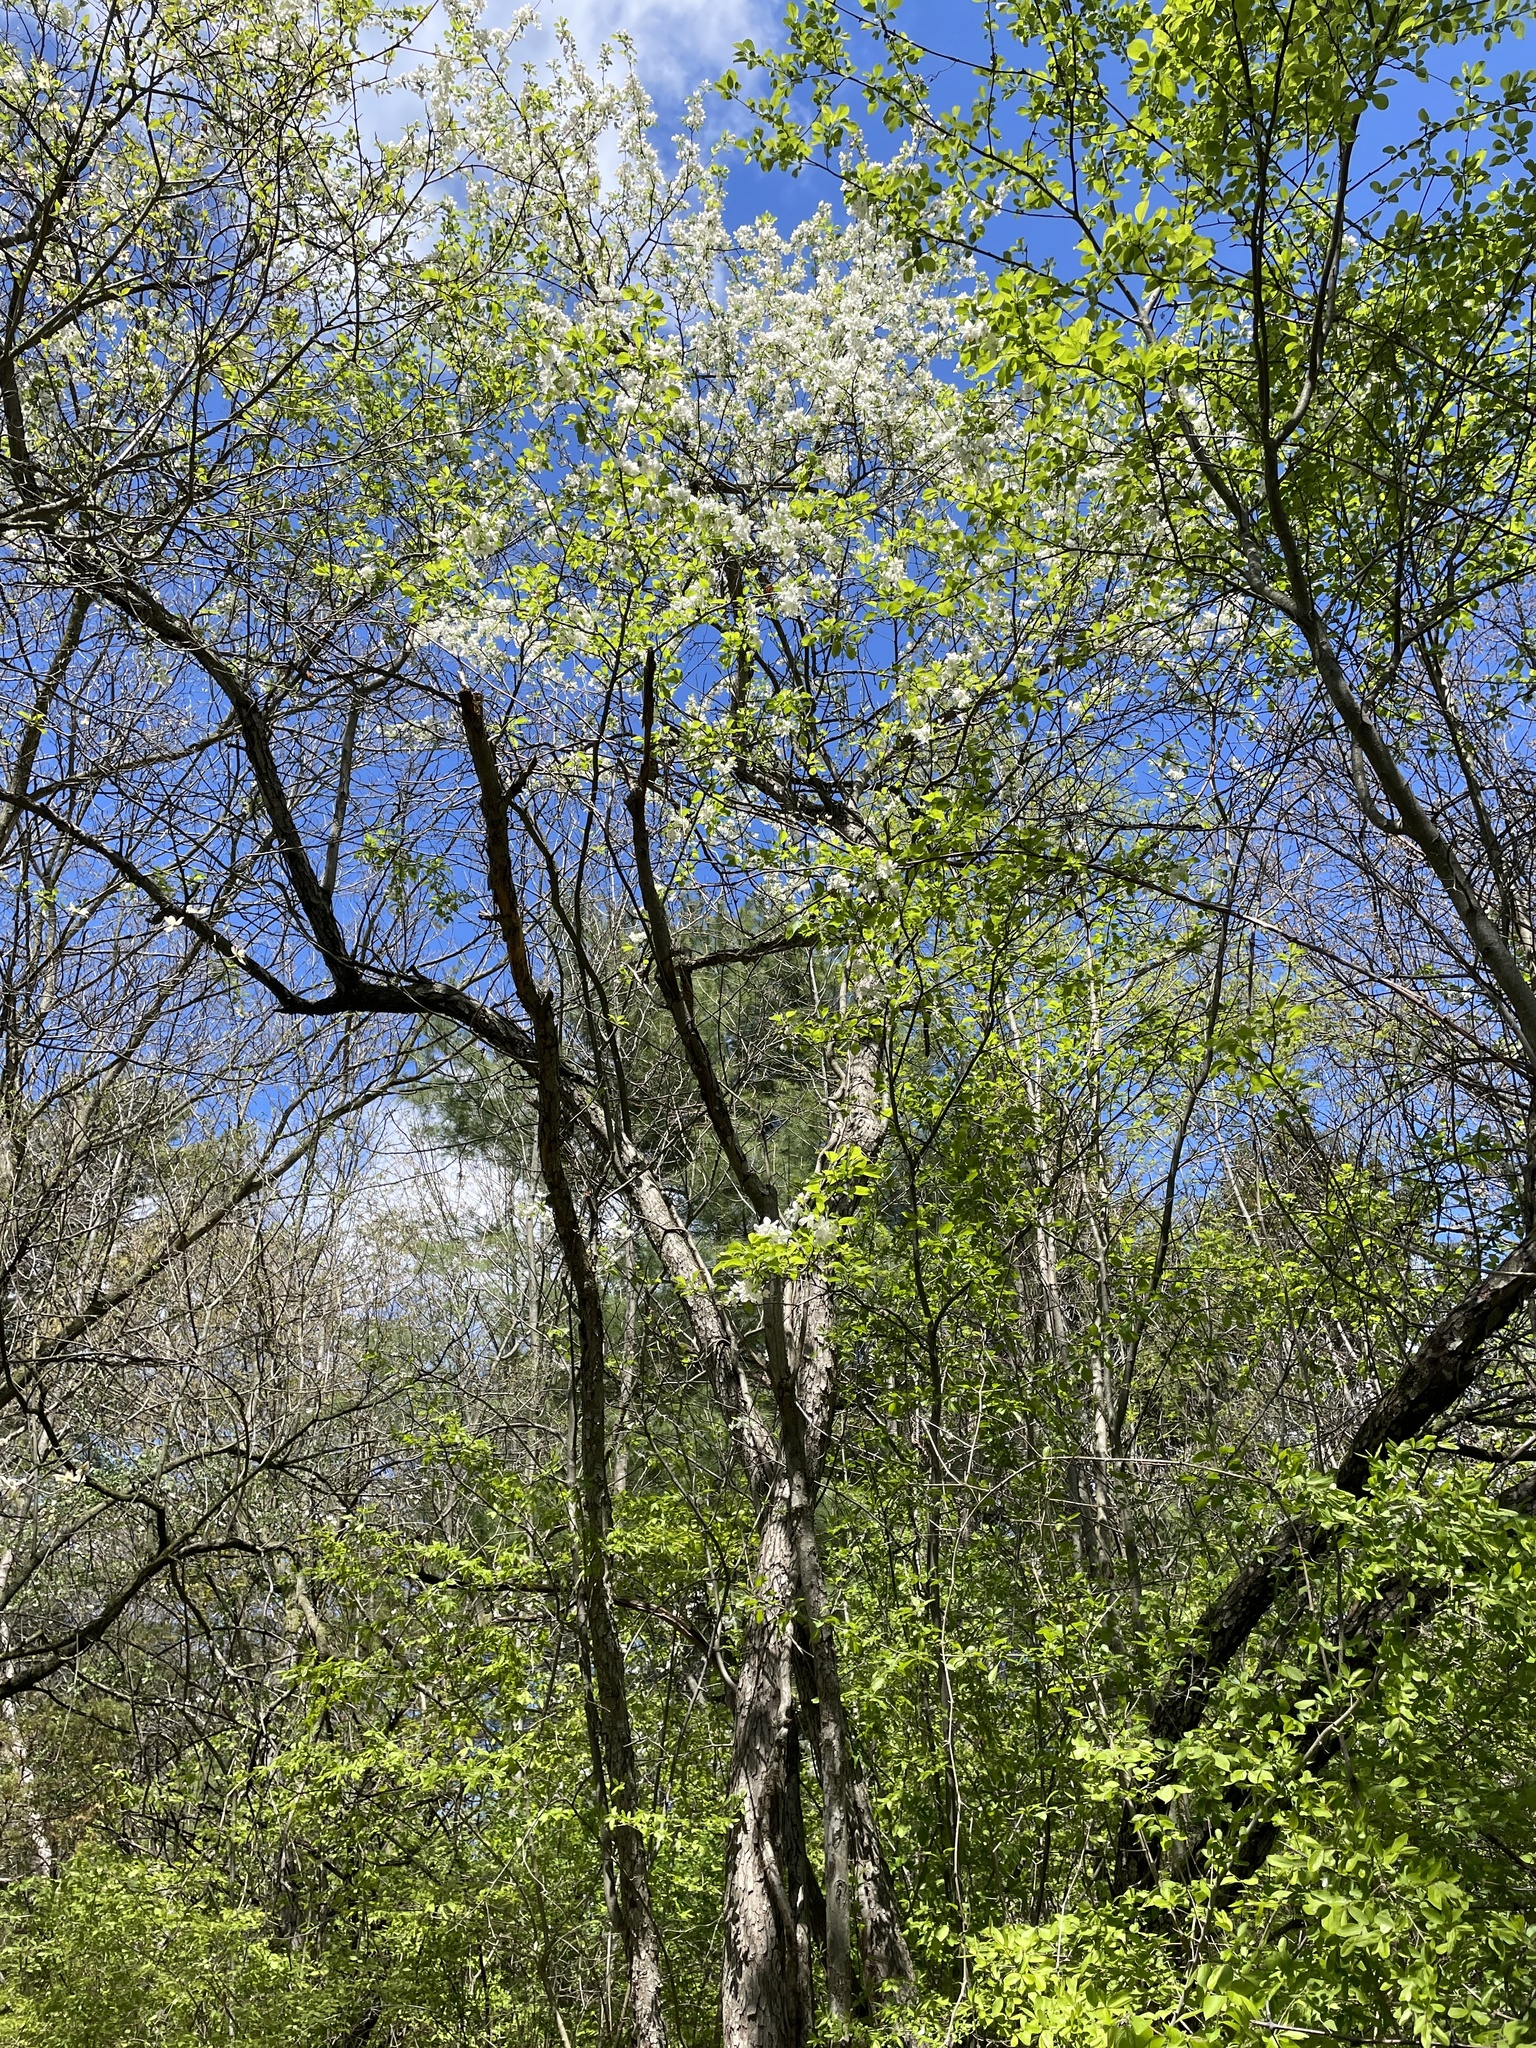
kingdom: Plantae
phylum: Tracheophyta
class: Magnoliopsida
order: Cornales
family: Cornaceae
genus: Cornus
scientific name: Cornus florida
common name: Flowering dogwood
